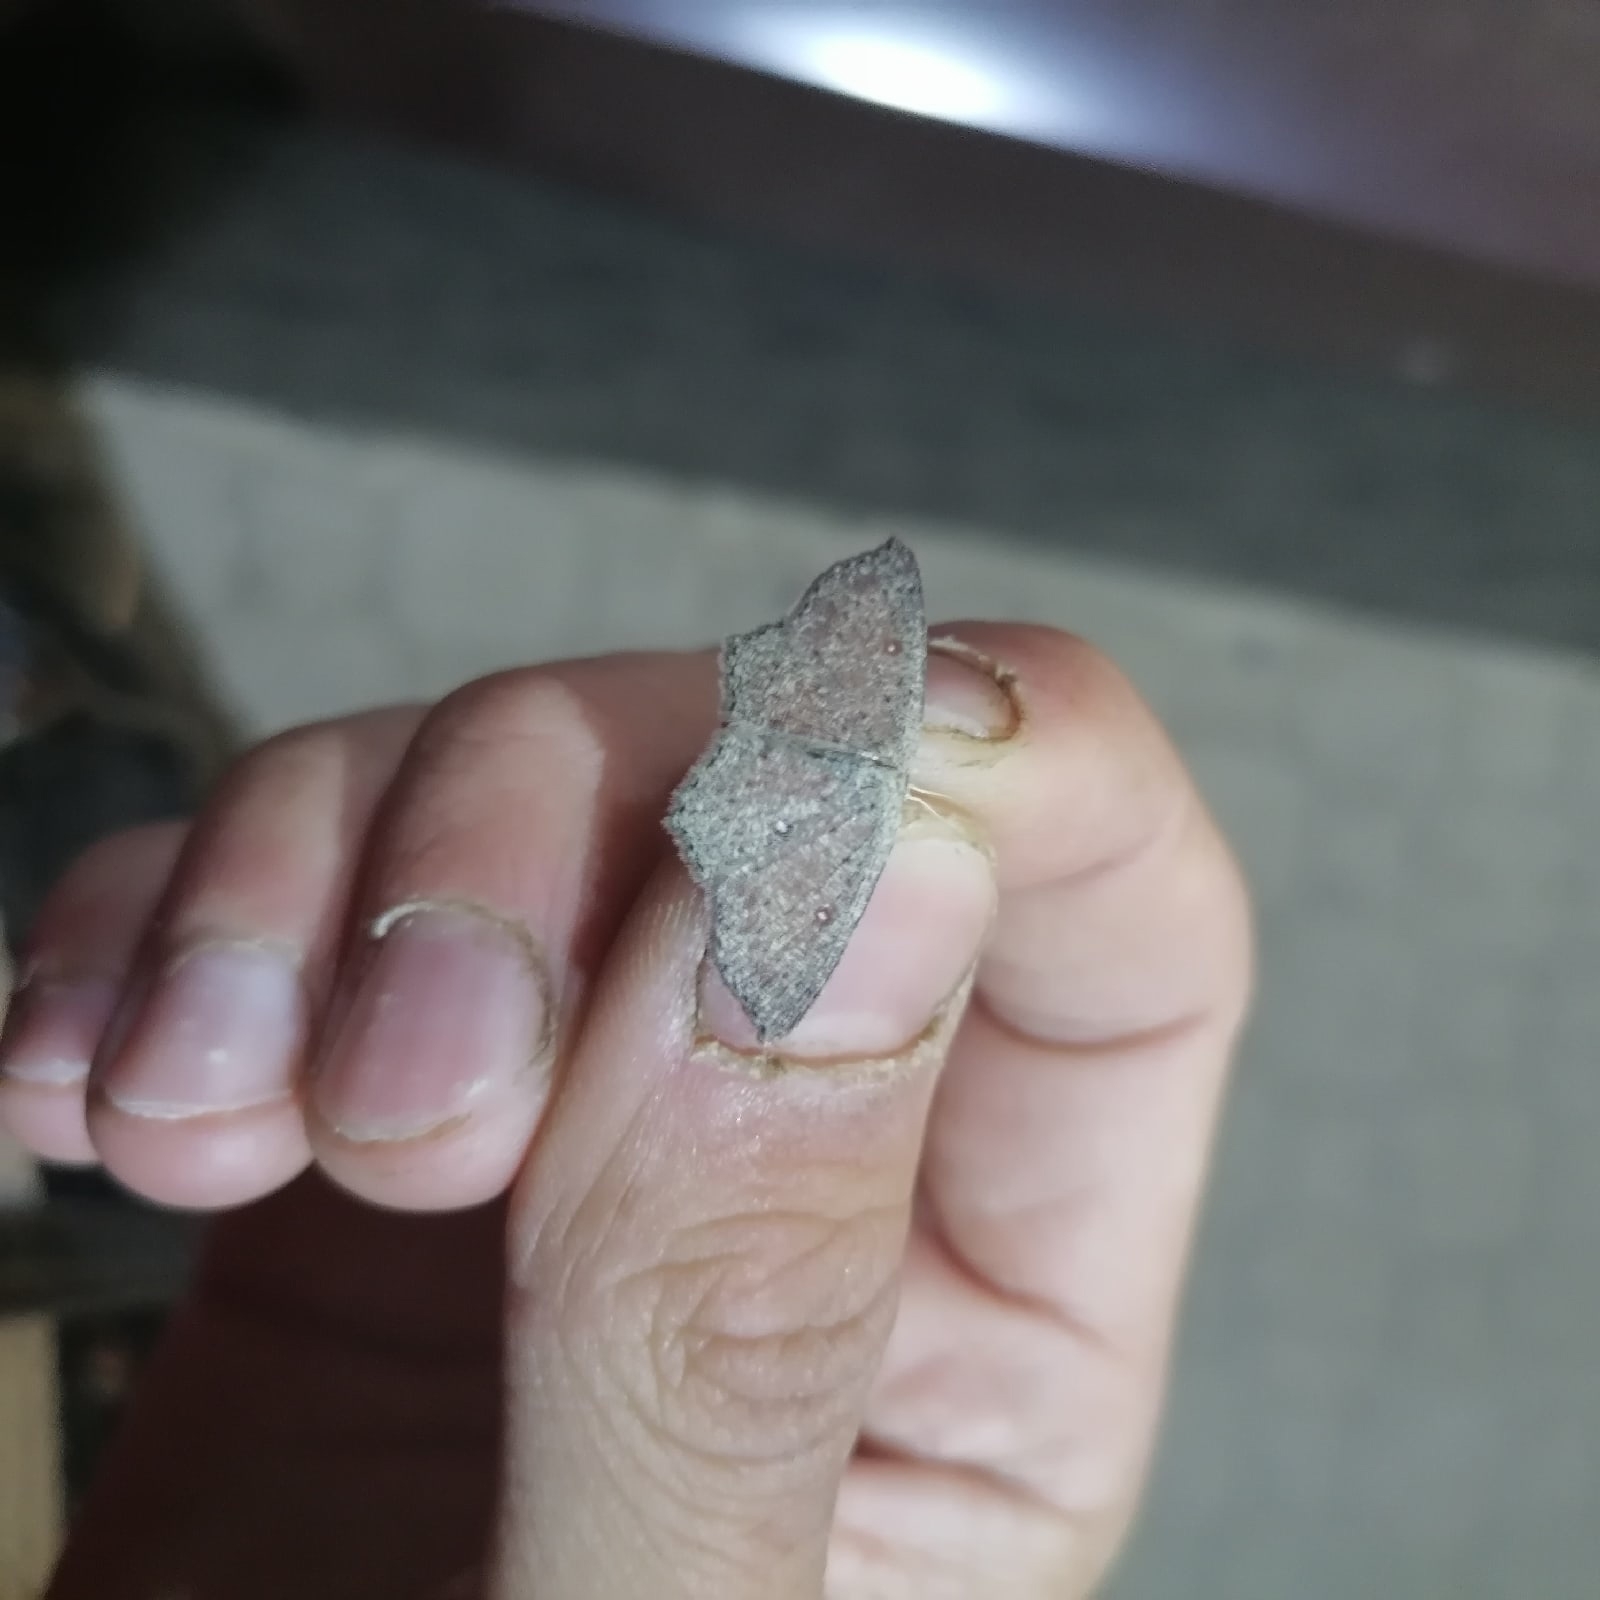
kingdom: Animalia
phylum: Arthropoda
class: Insecta
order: Lepidoptera
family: Geometridae
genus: Cyclophora
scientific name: Cyclophora pendularia
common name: Dingy mocha
